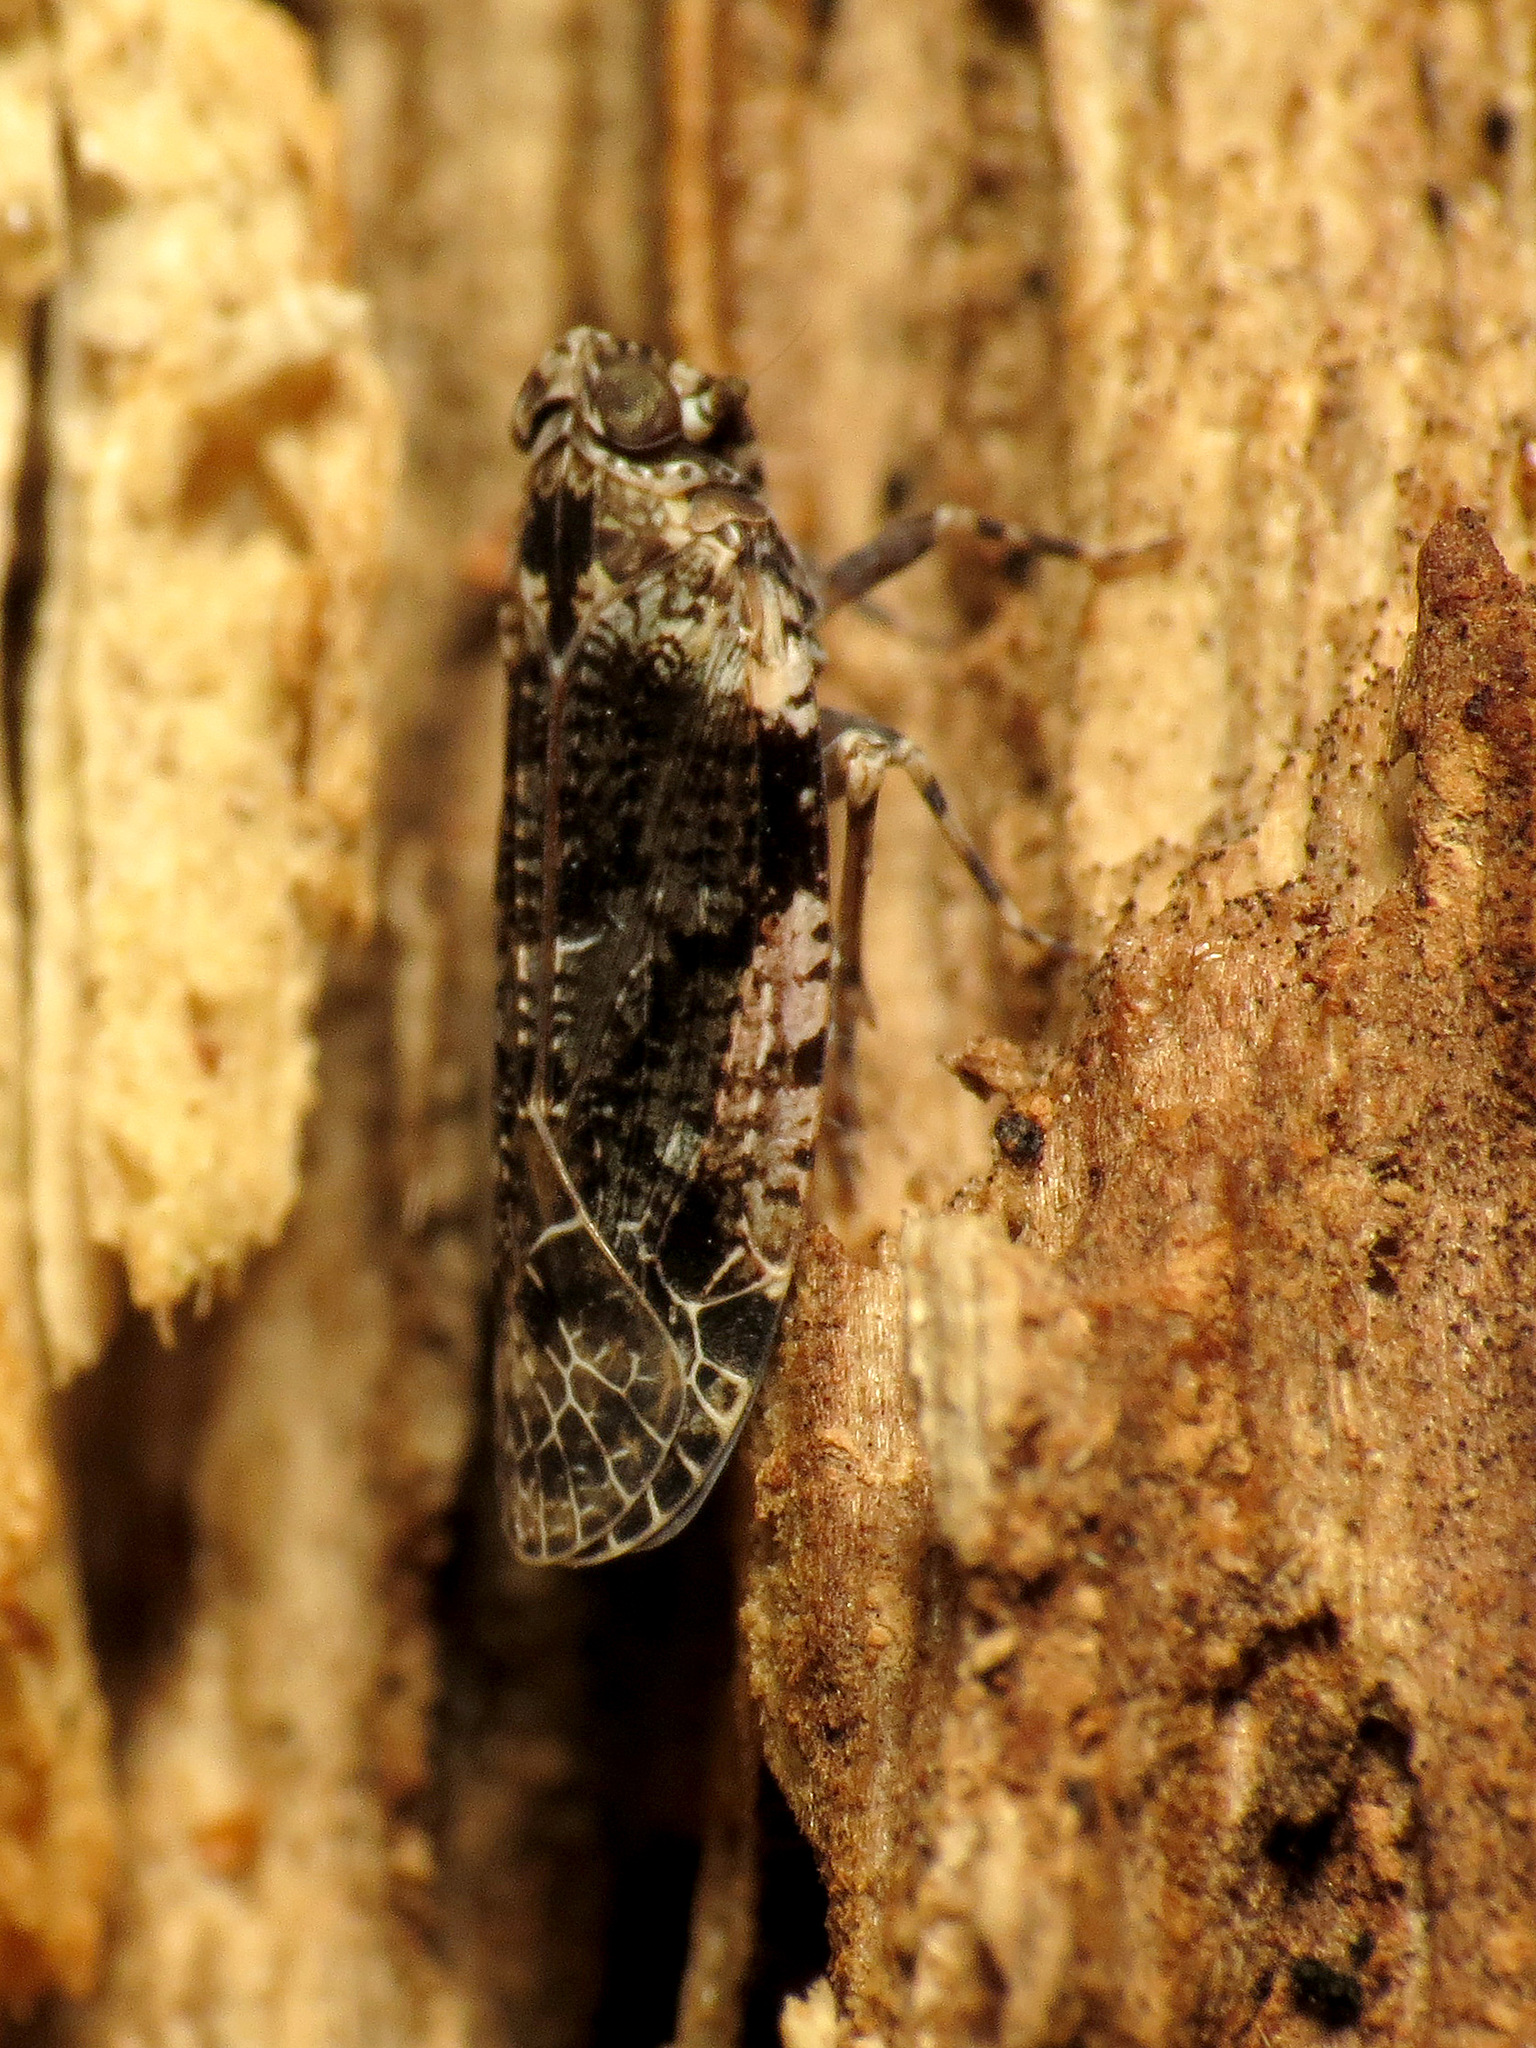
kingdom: Animalia
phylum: Arthropoda
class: Insecta
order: Hemiptera
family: Achilidae
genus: Catonia
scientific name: Catonia nava
